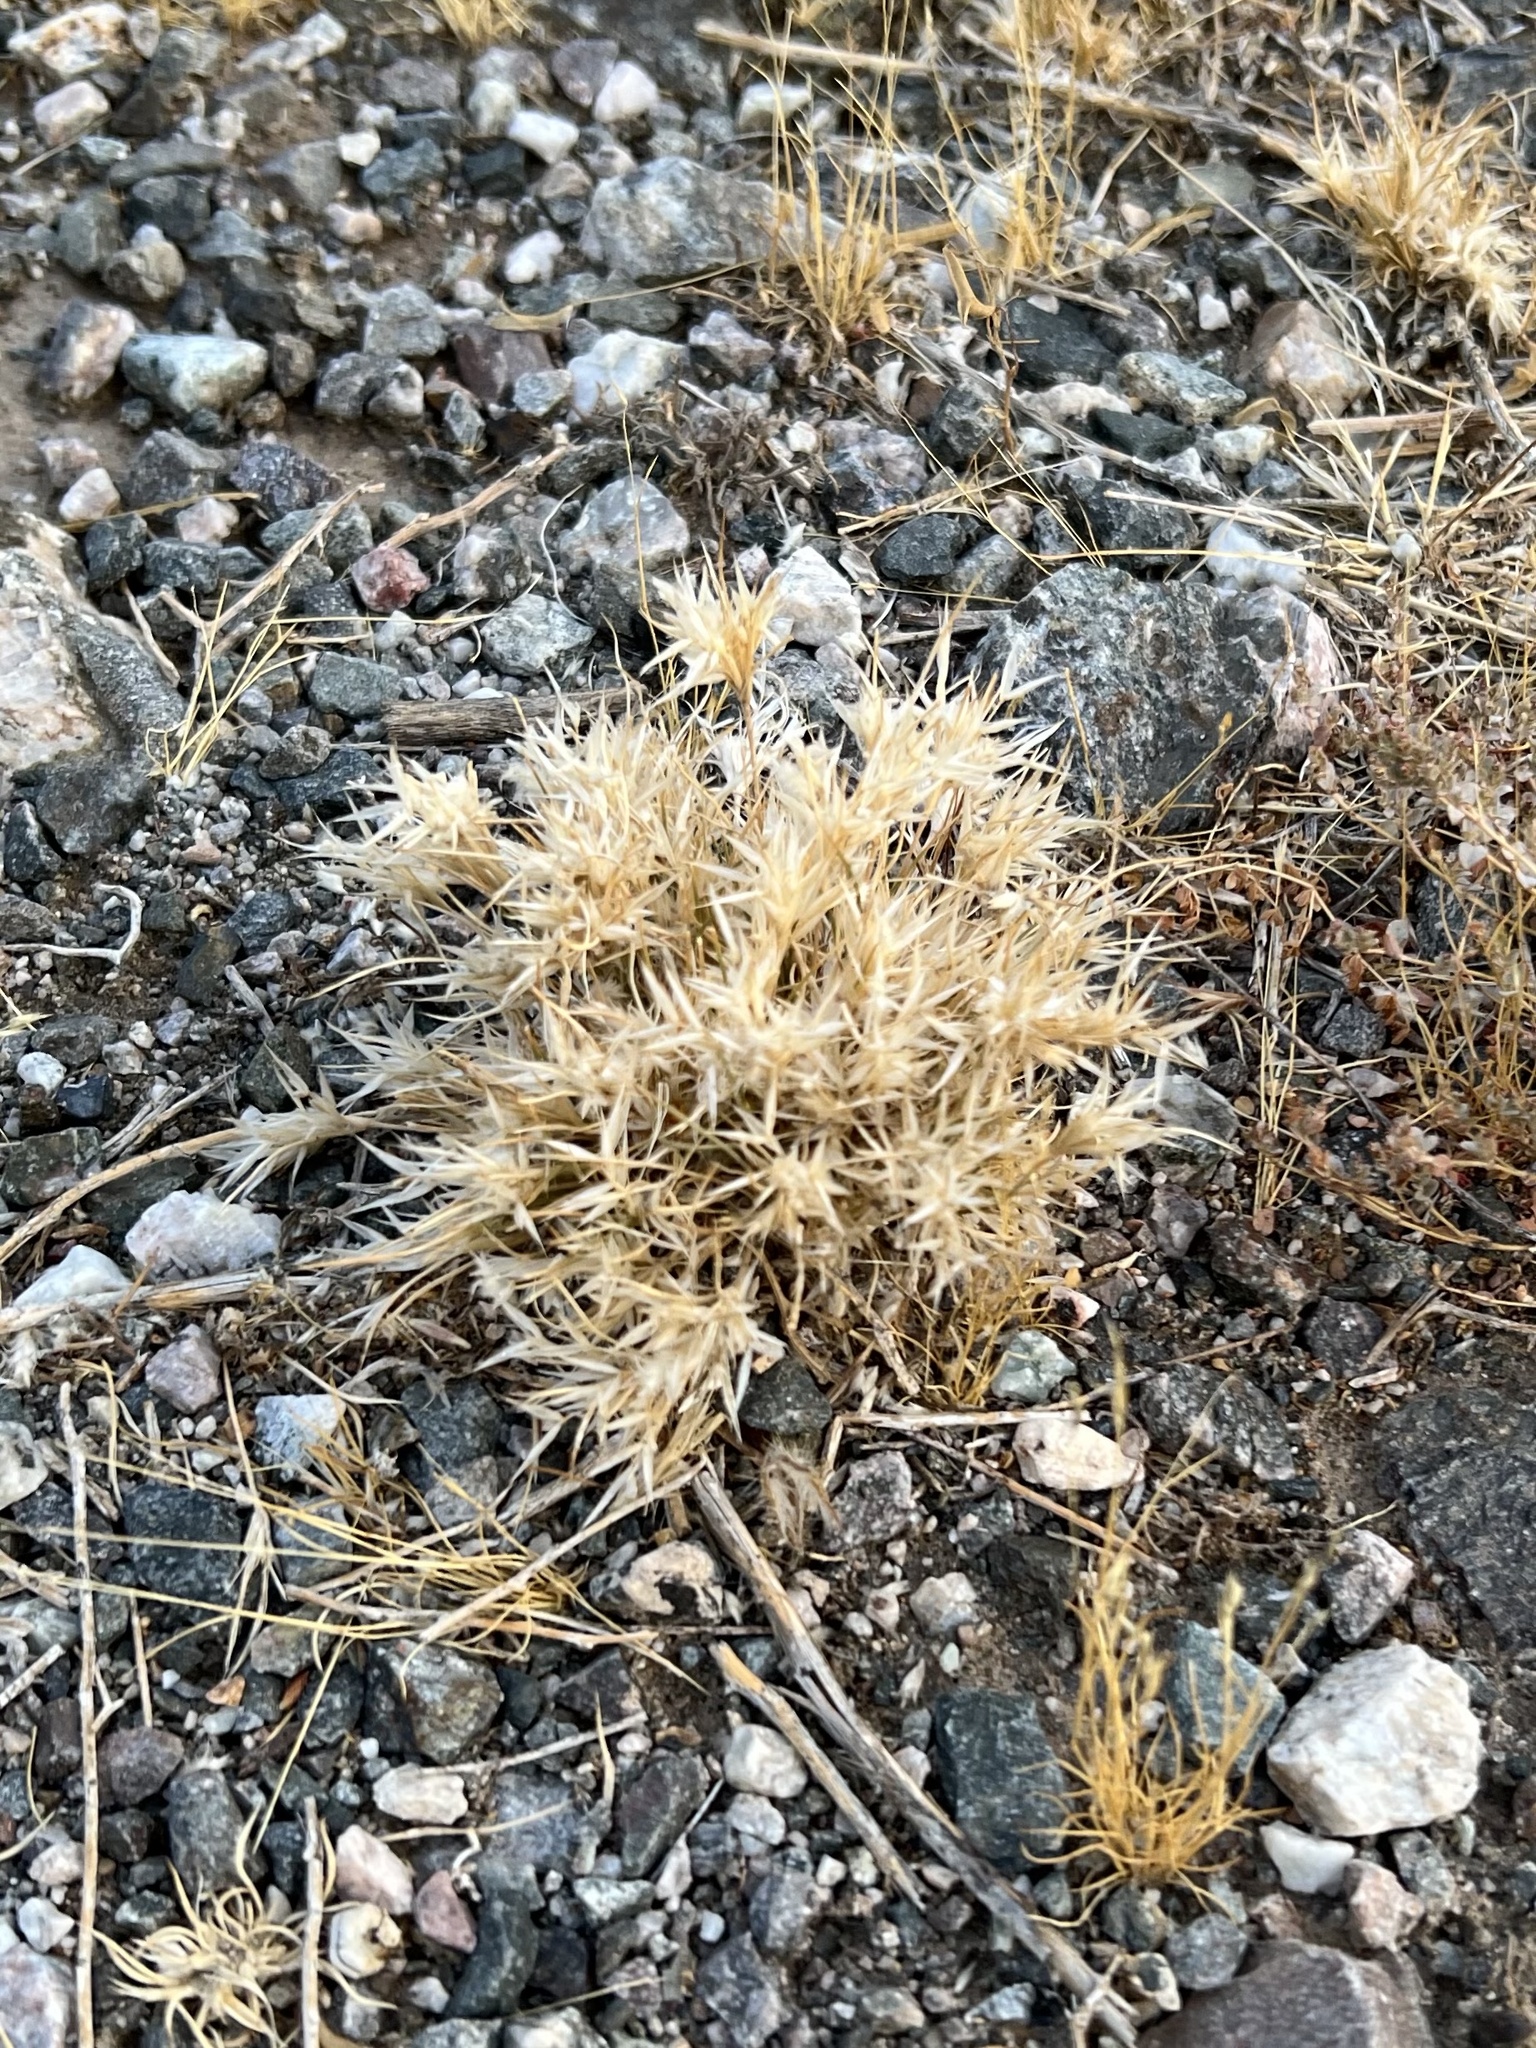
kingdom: Plantae
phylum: Tracheophyta
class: Liliopsida
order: Poales
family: Poaceae
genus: Dasyochloa
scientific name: Dasyochloa pulchella
